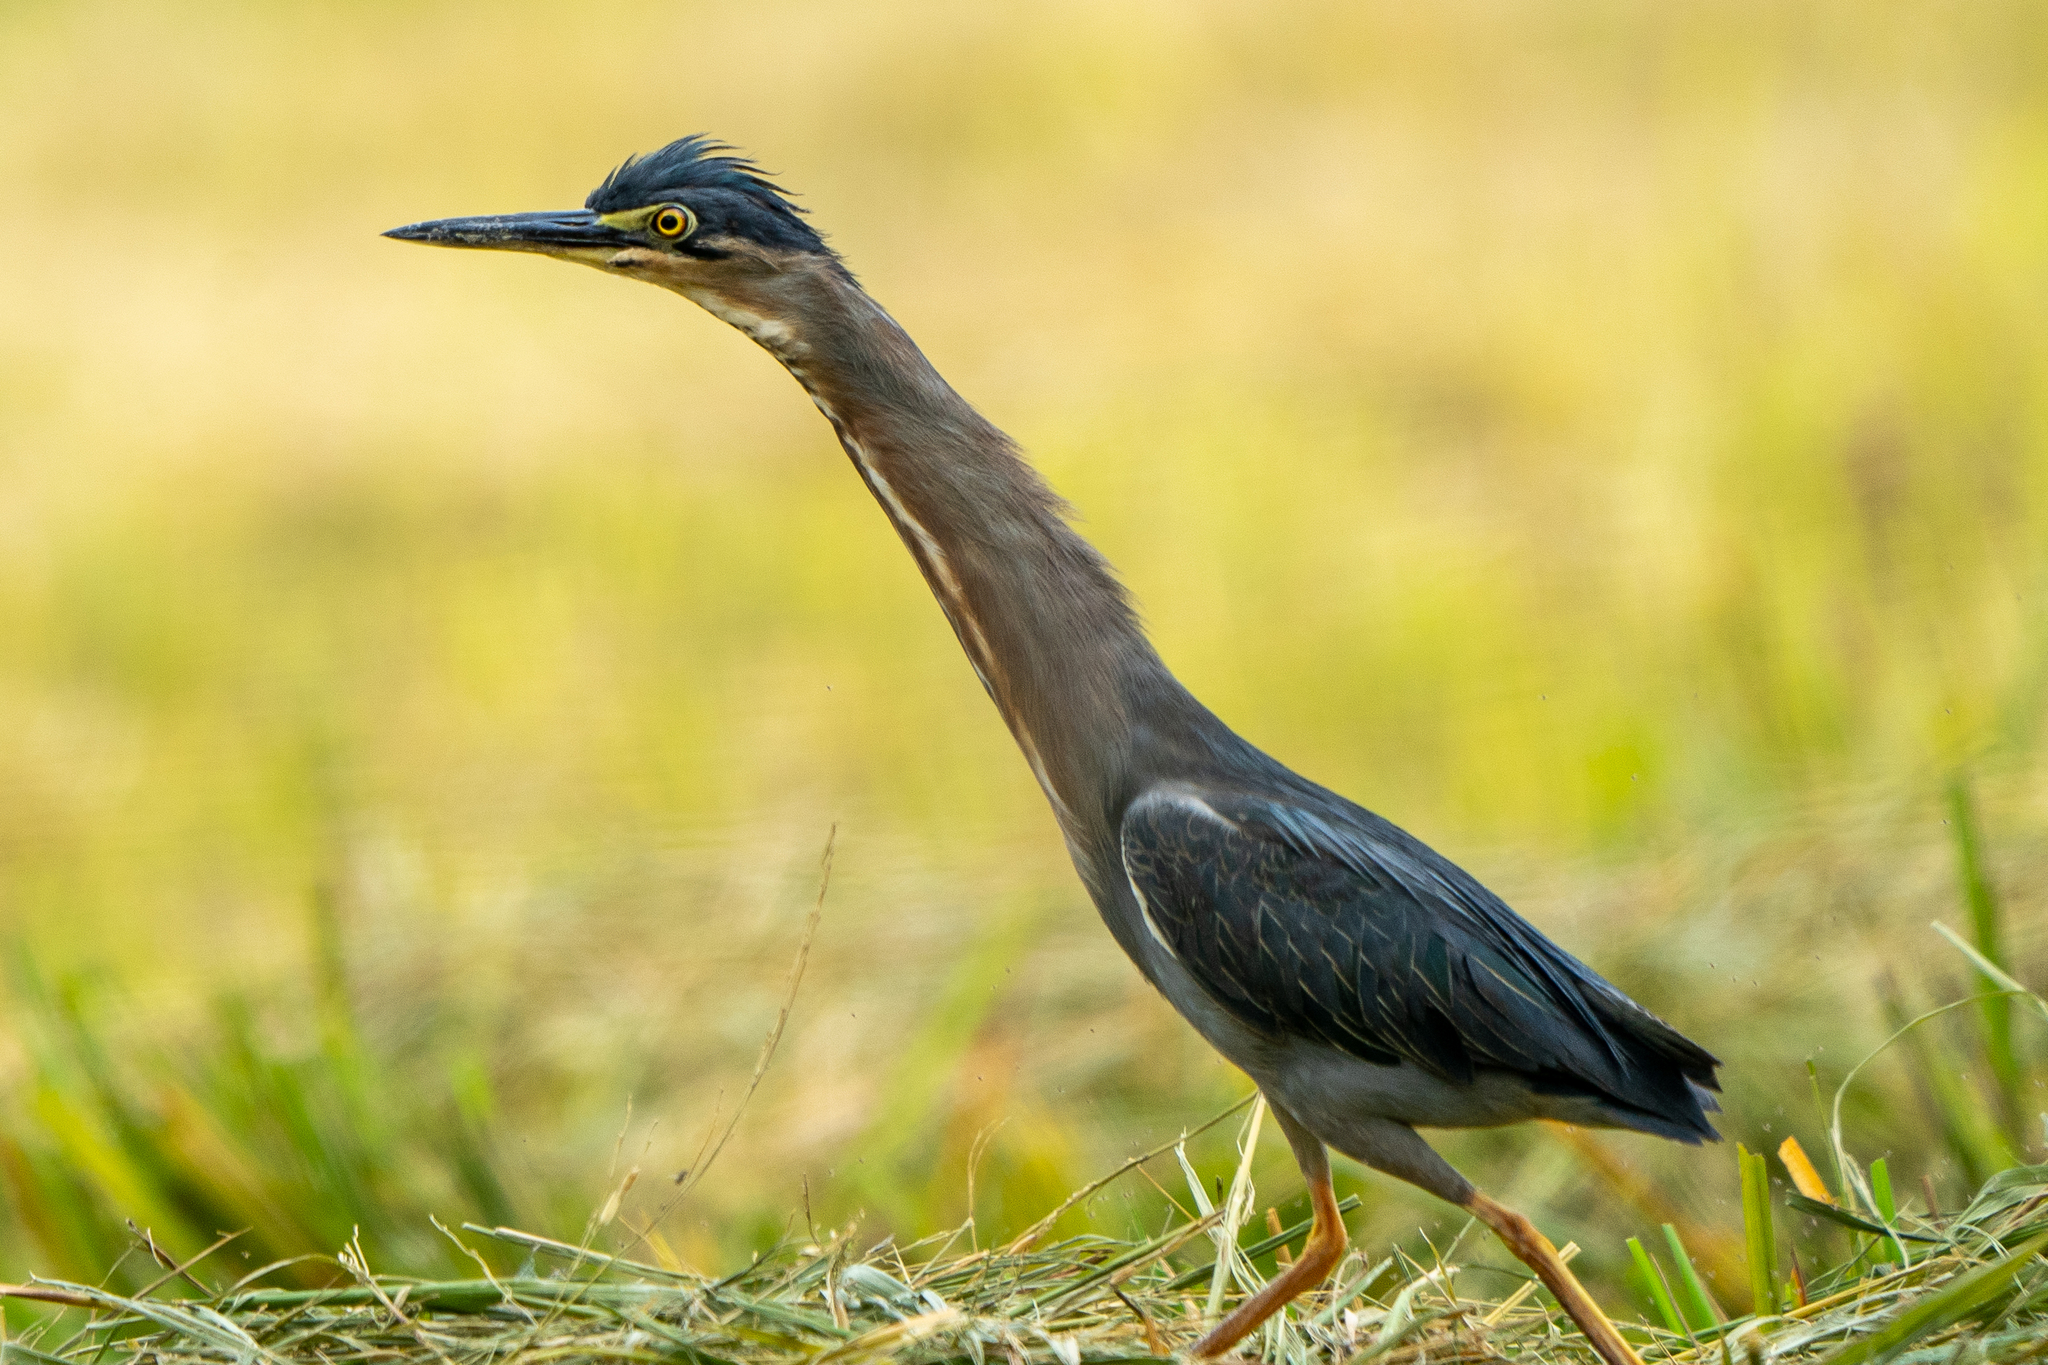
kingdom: Animalia
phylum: Chordata
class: Aves
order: Pelecaniformes
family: Ardeidae
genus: Butorides
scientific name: Butorides striata
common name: Striated heron
